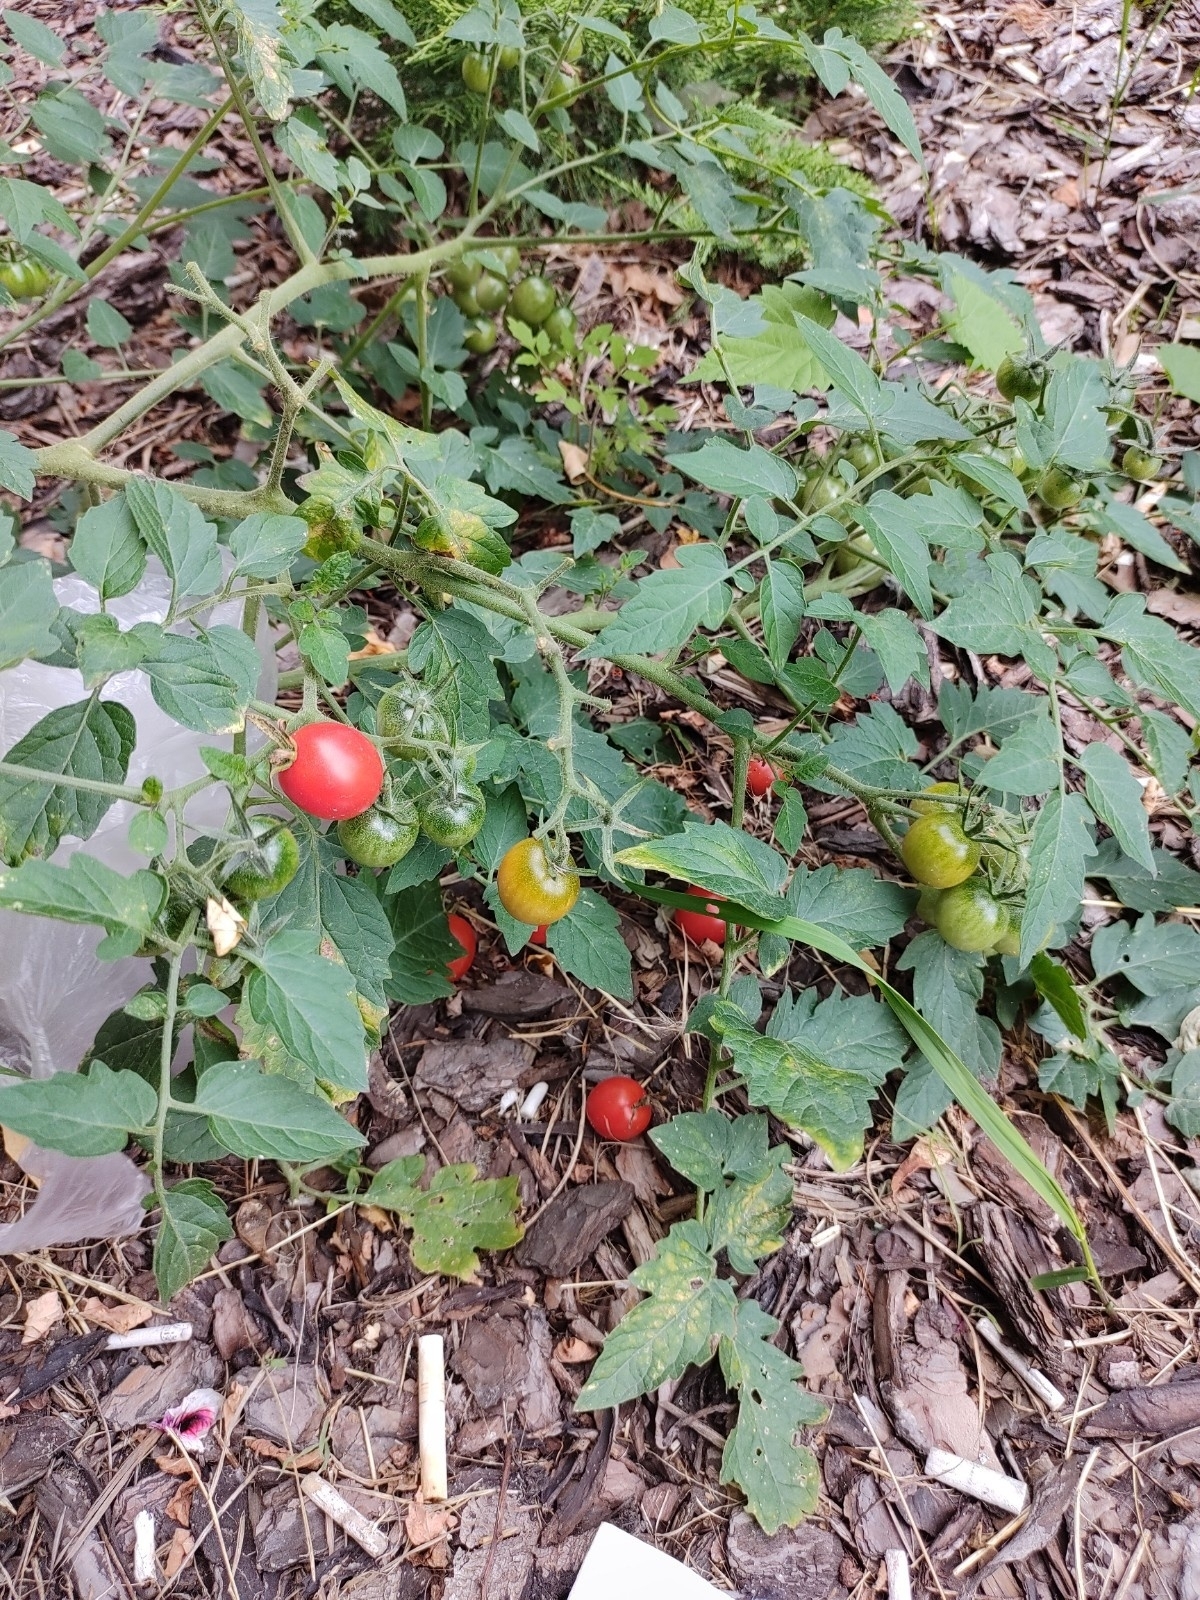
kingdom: Plantae
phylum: Tracheophyta
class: Magnoliopsida
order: Solanales
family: Solanaceae
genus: Solanum
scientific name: Solanum lycopersicum
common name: Garden tomato
